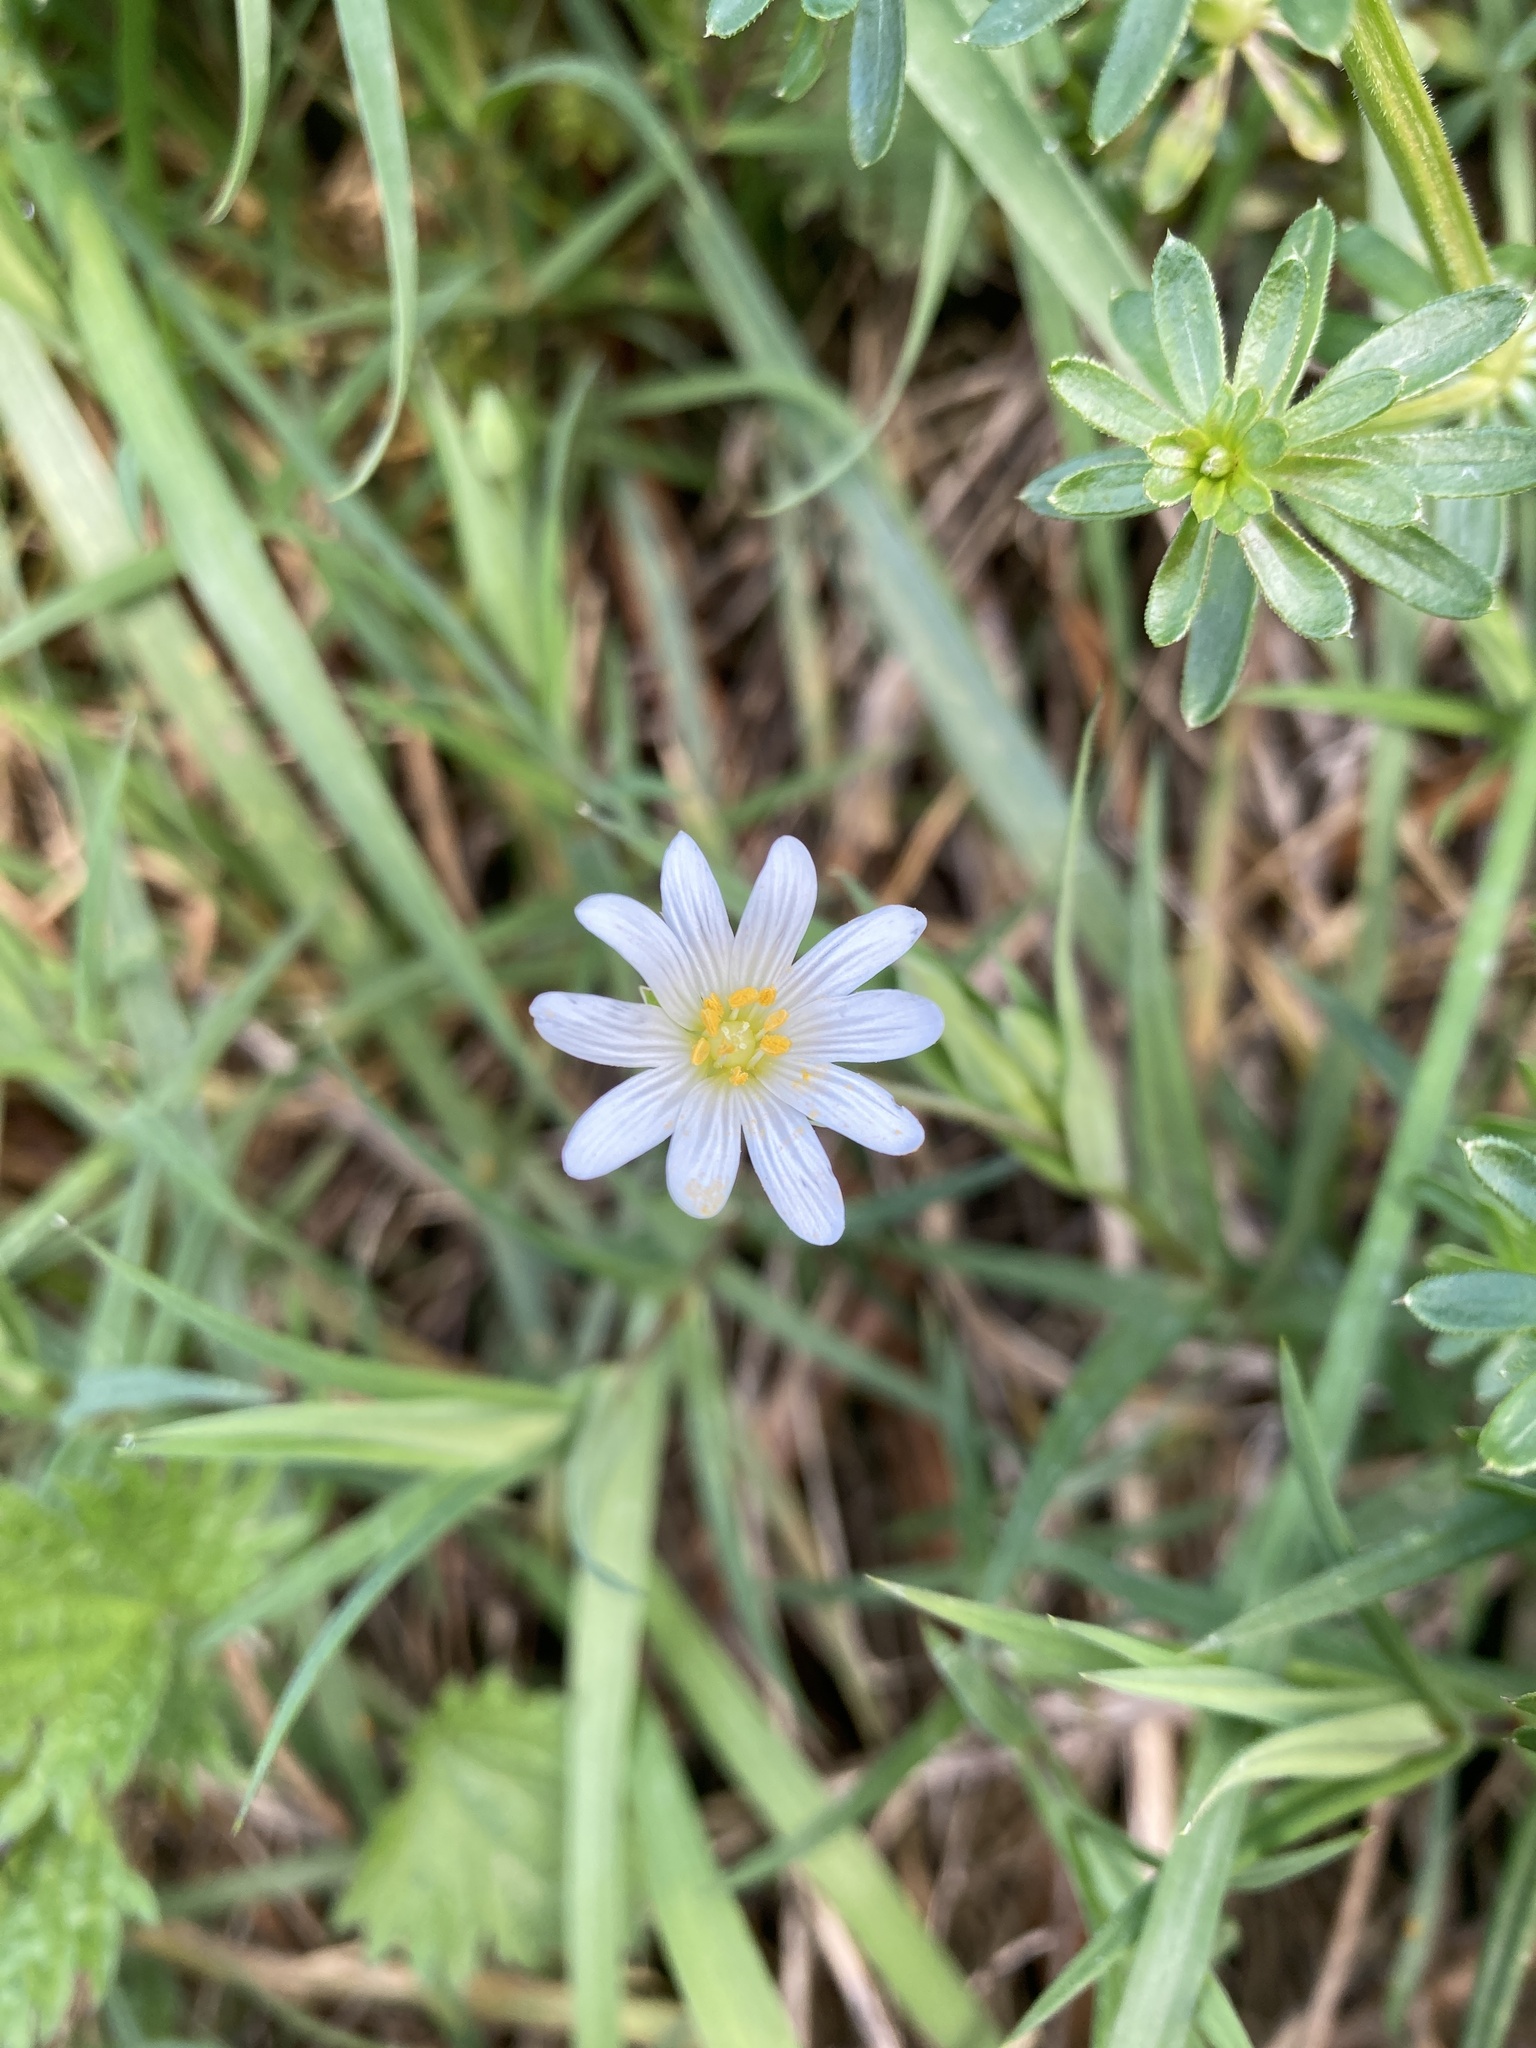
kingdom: Plantae
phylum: Tracheophyta
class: Magnoliopsida
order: Caryophyllales
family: Caryophyllaceae
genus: Rabelera
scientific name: Rabelera holostea
